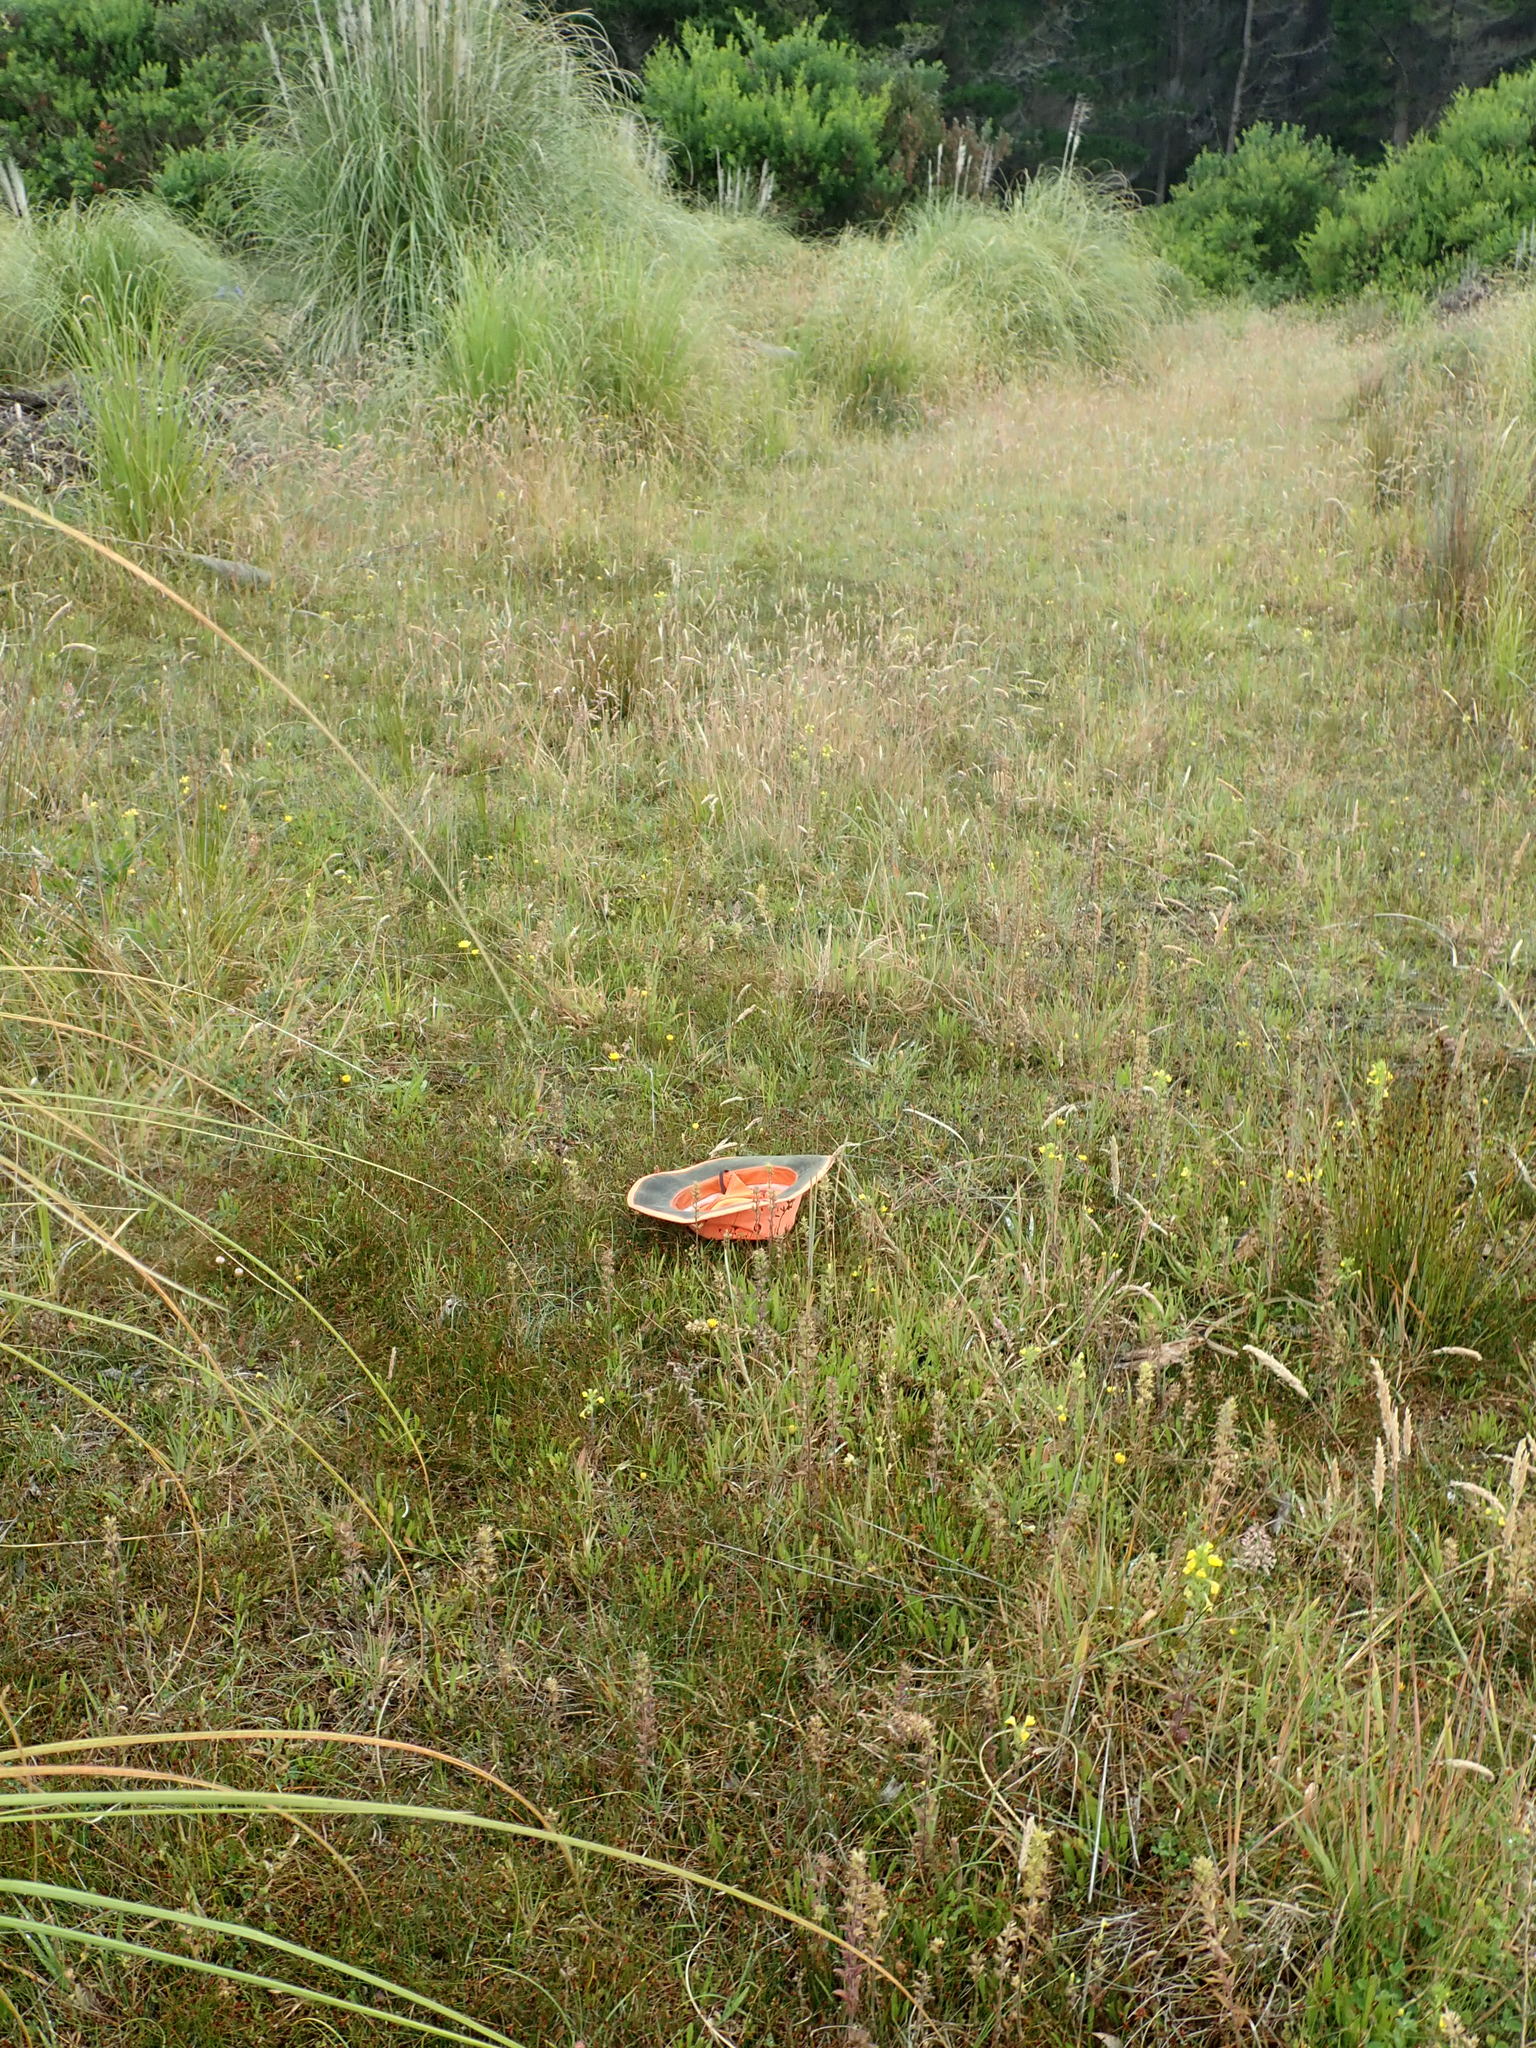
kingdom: Plantae
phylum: Tracheophyta
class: Liliopsida
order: Poales
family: Cyperaceae
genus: Carex
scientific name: Carex pumila
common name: Dwarf sedge
